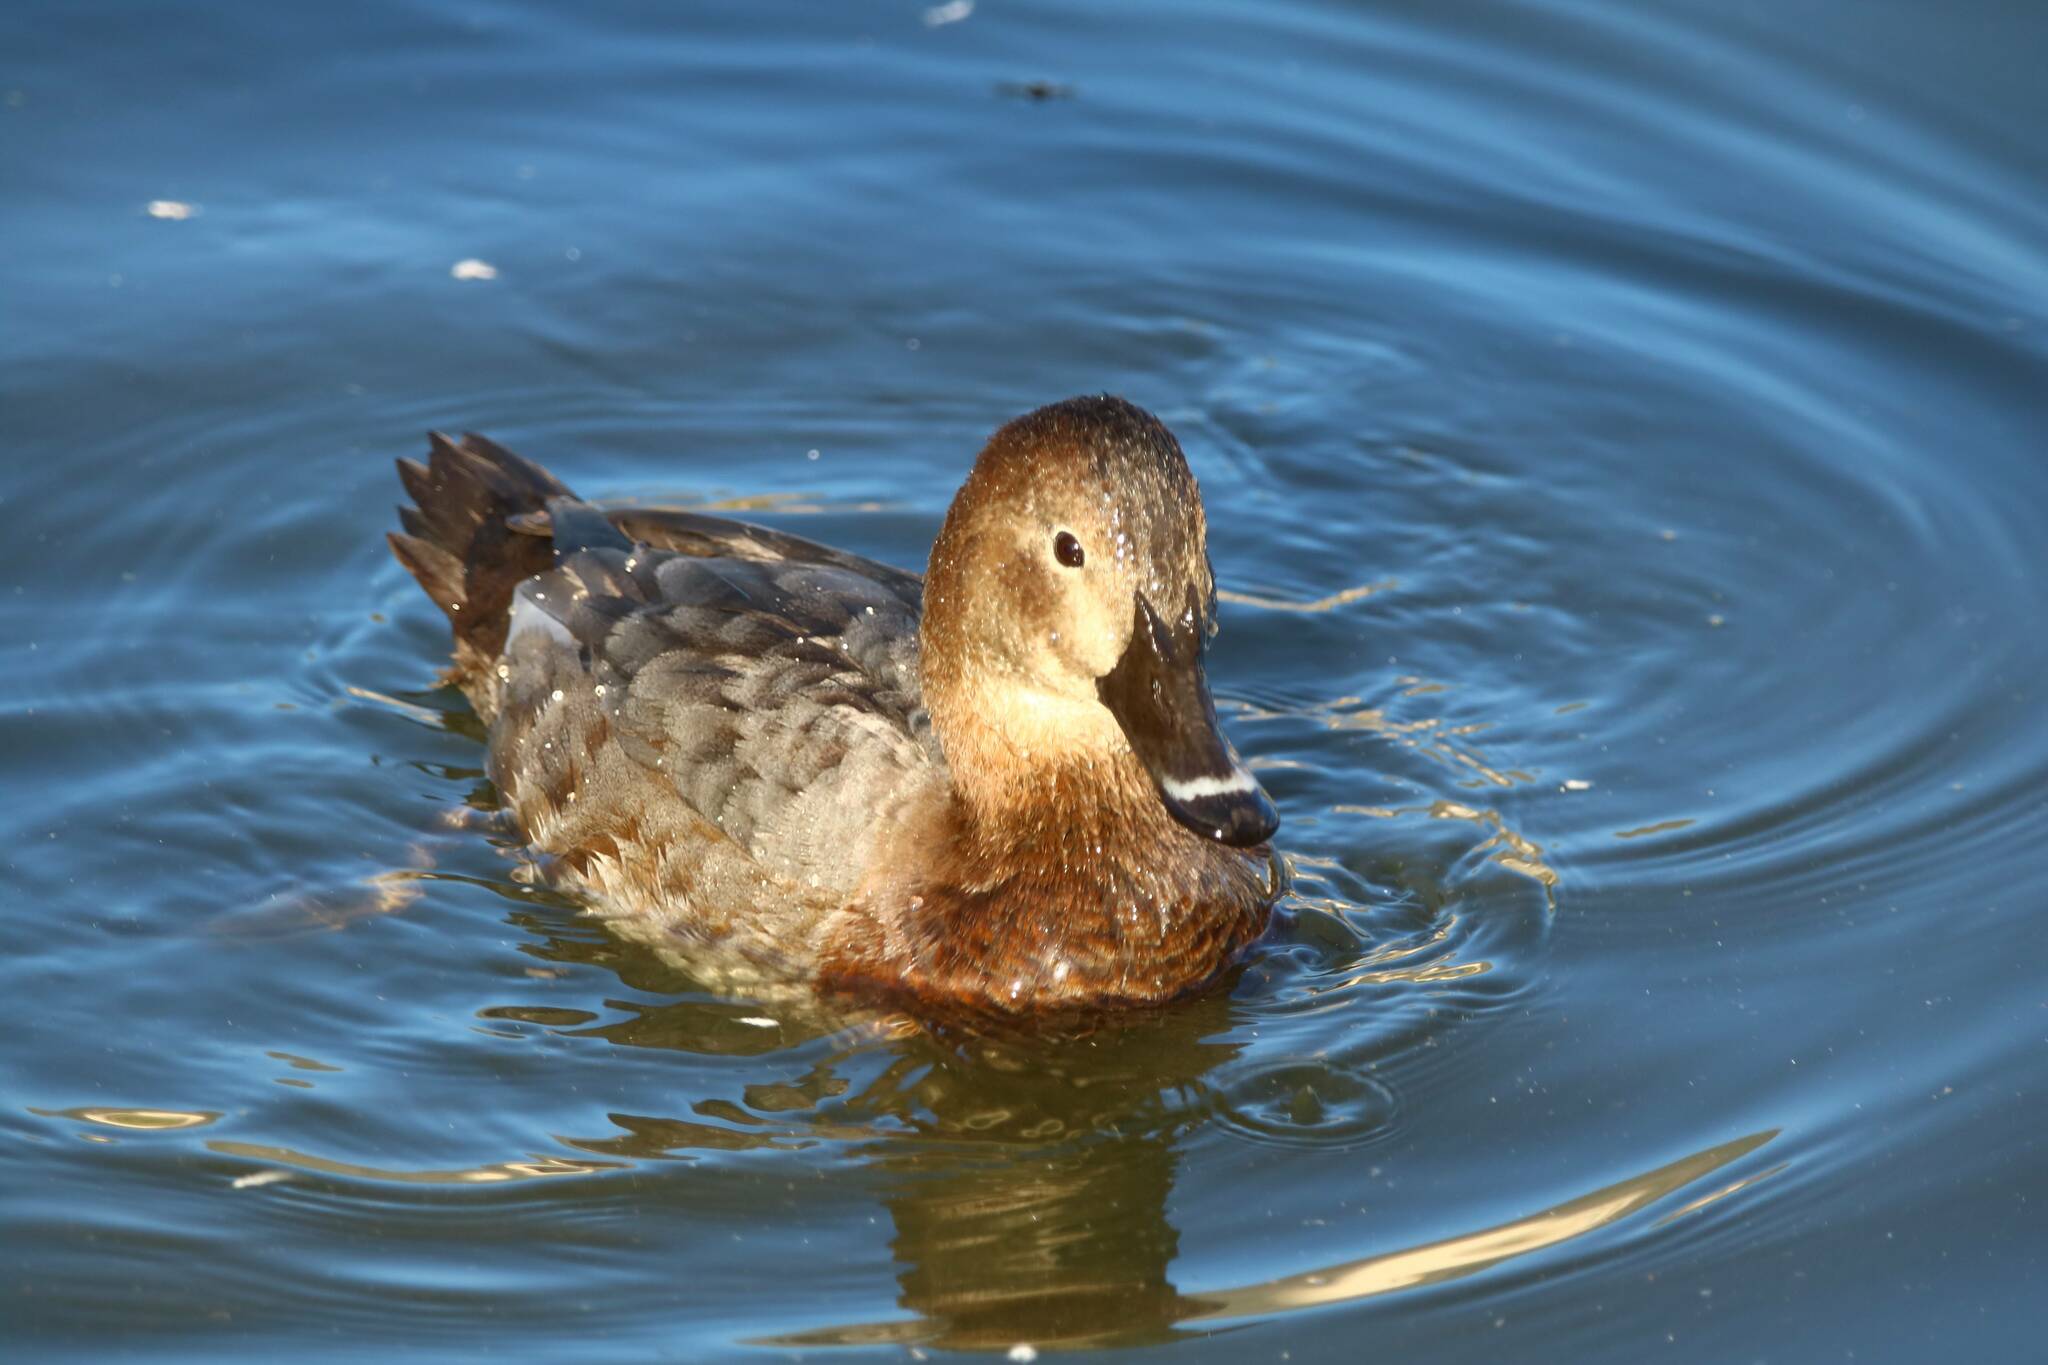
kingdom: Animalia
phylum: Chordata
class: Aves
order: Anseriformes
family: Anatidae
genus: Aythya
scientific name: Aythya ferina
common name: Common pochard
